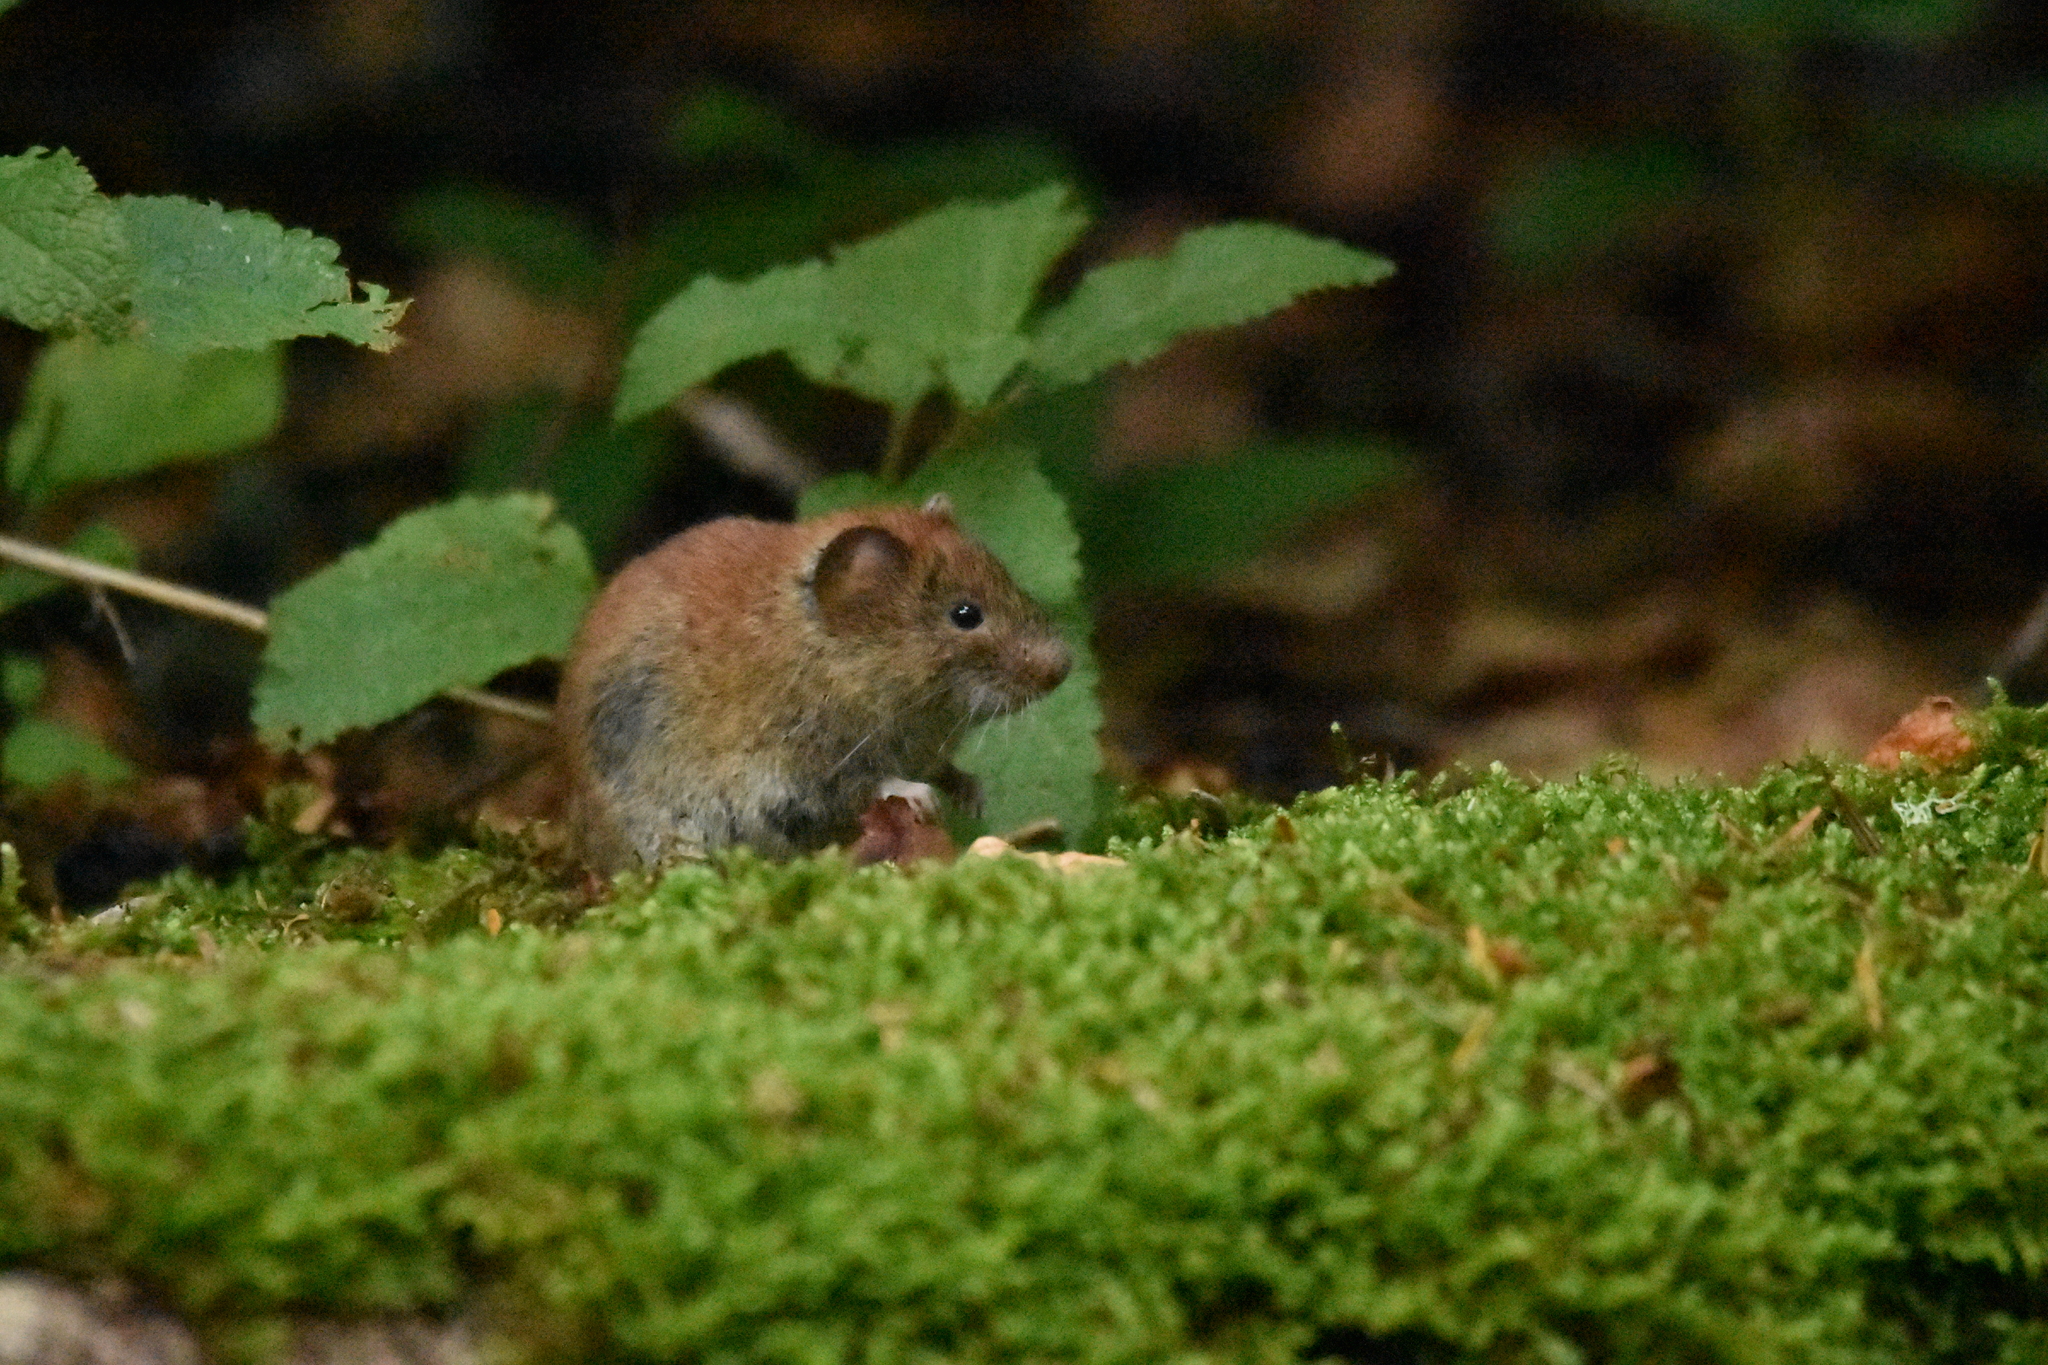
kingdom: Animalia
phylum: Chordata
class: Mammalia
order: Rodentia
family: Cricetidae
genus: Myodes
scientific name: Myodes glareolus
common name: Bank vole
